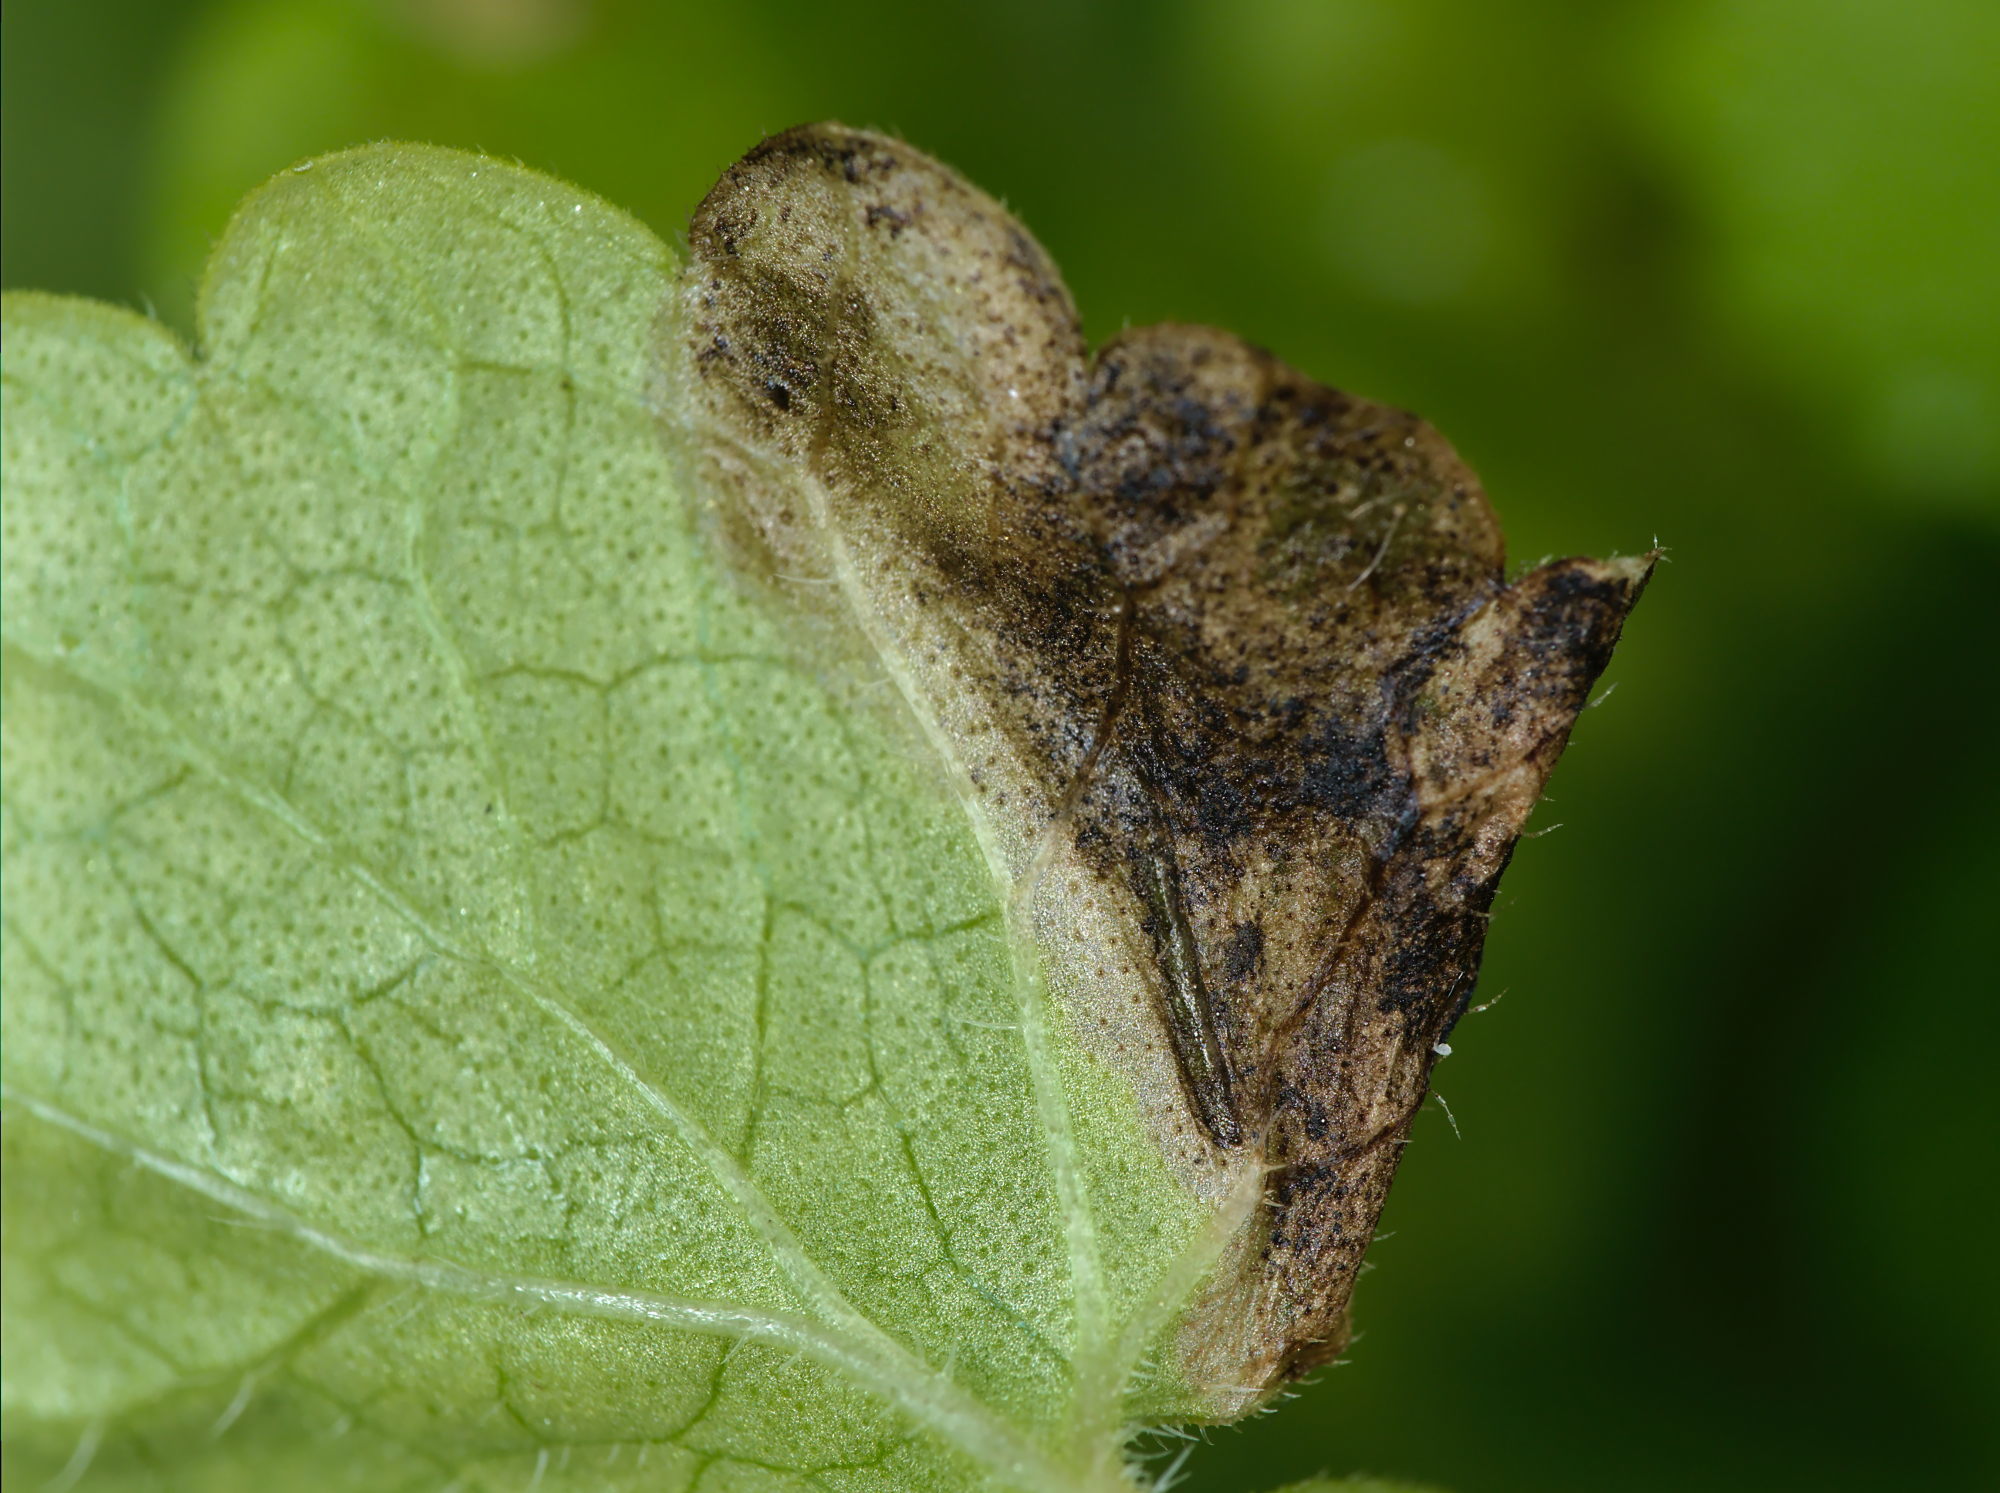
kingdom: Animalia
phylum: Arthropoda
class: Insecta
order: Coleoptera
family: Buprestidae
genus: Trachys
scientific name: Trachys scrobiculatus
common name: Ground-ivy jewel beetle
